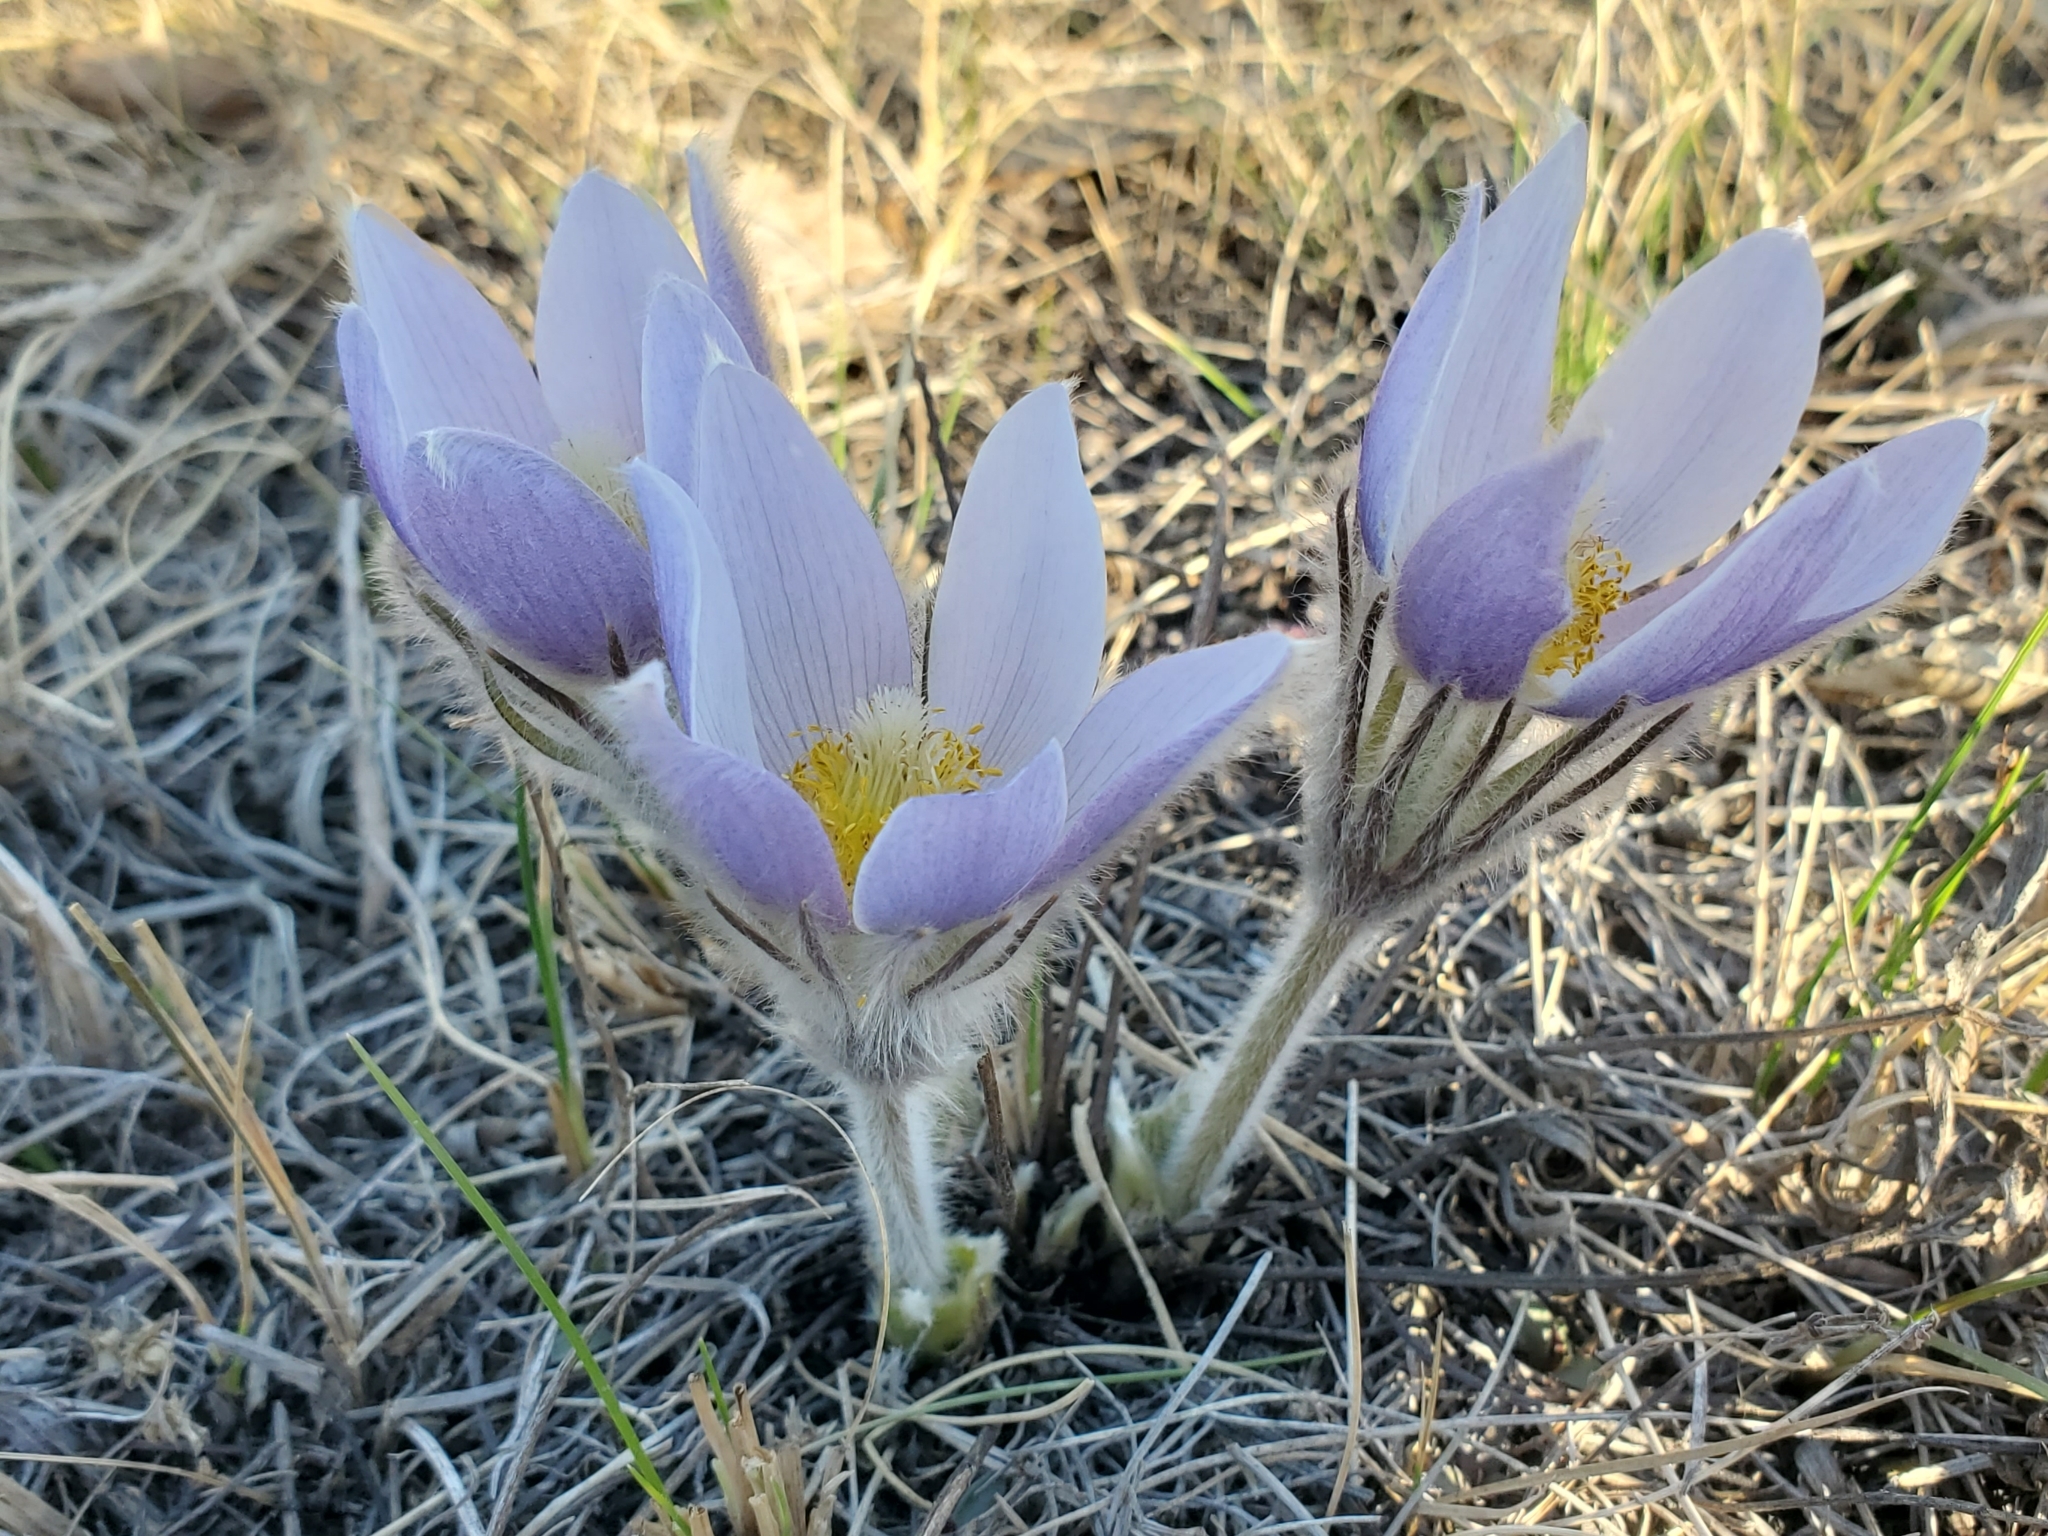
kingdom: Plantae
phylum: Tracheophyta
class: Magnoliopsida
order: Ranunculales
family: Ranunculaceae
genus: Pulsatilla
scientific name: Pulsatilla nuttalliana
